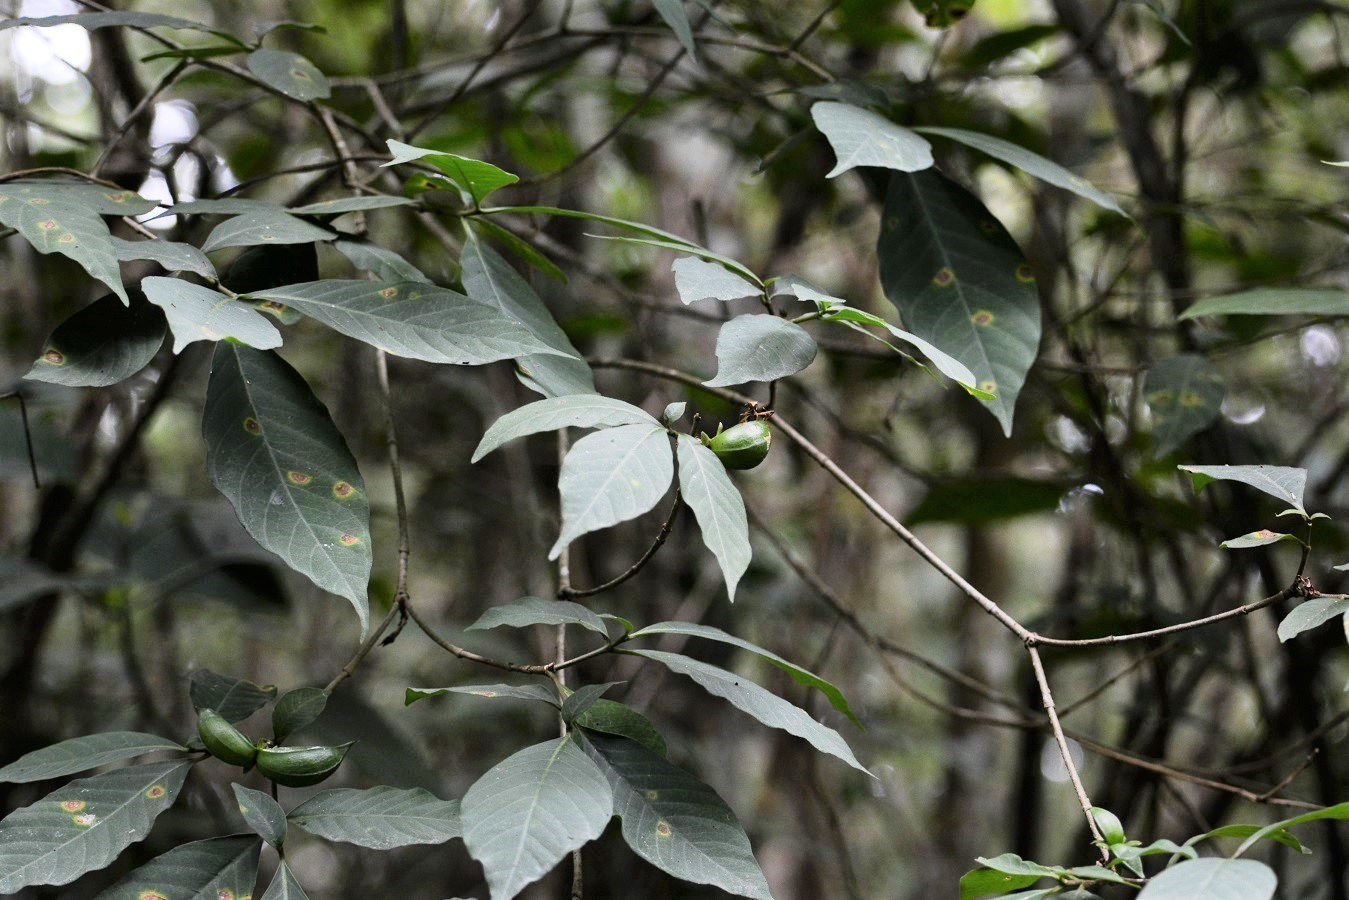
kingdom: Plantae
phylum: Tracheophyta
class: Magnoliopsida
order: Gentianales
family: Apocynaceae
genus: Tabernaemontana
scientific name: Tabernaemontana hannae
